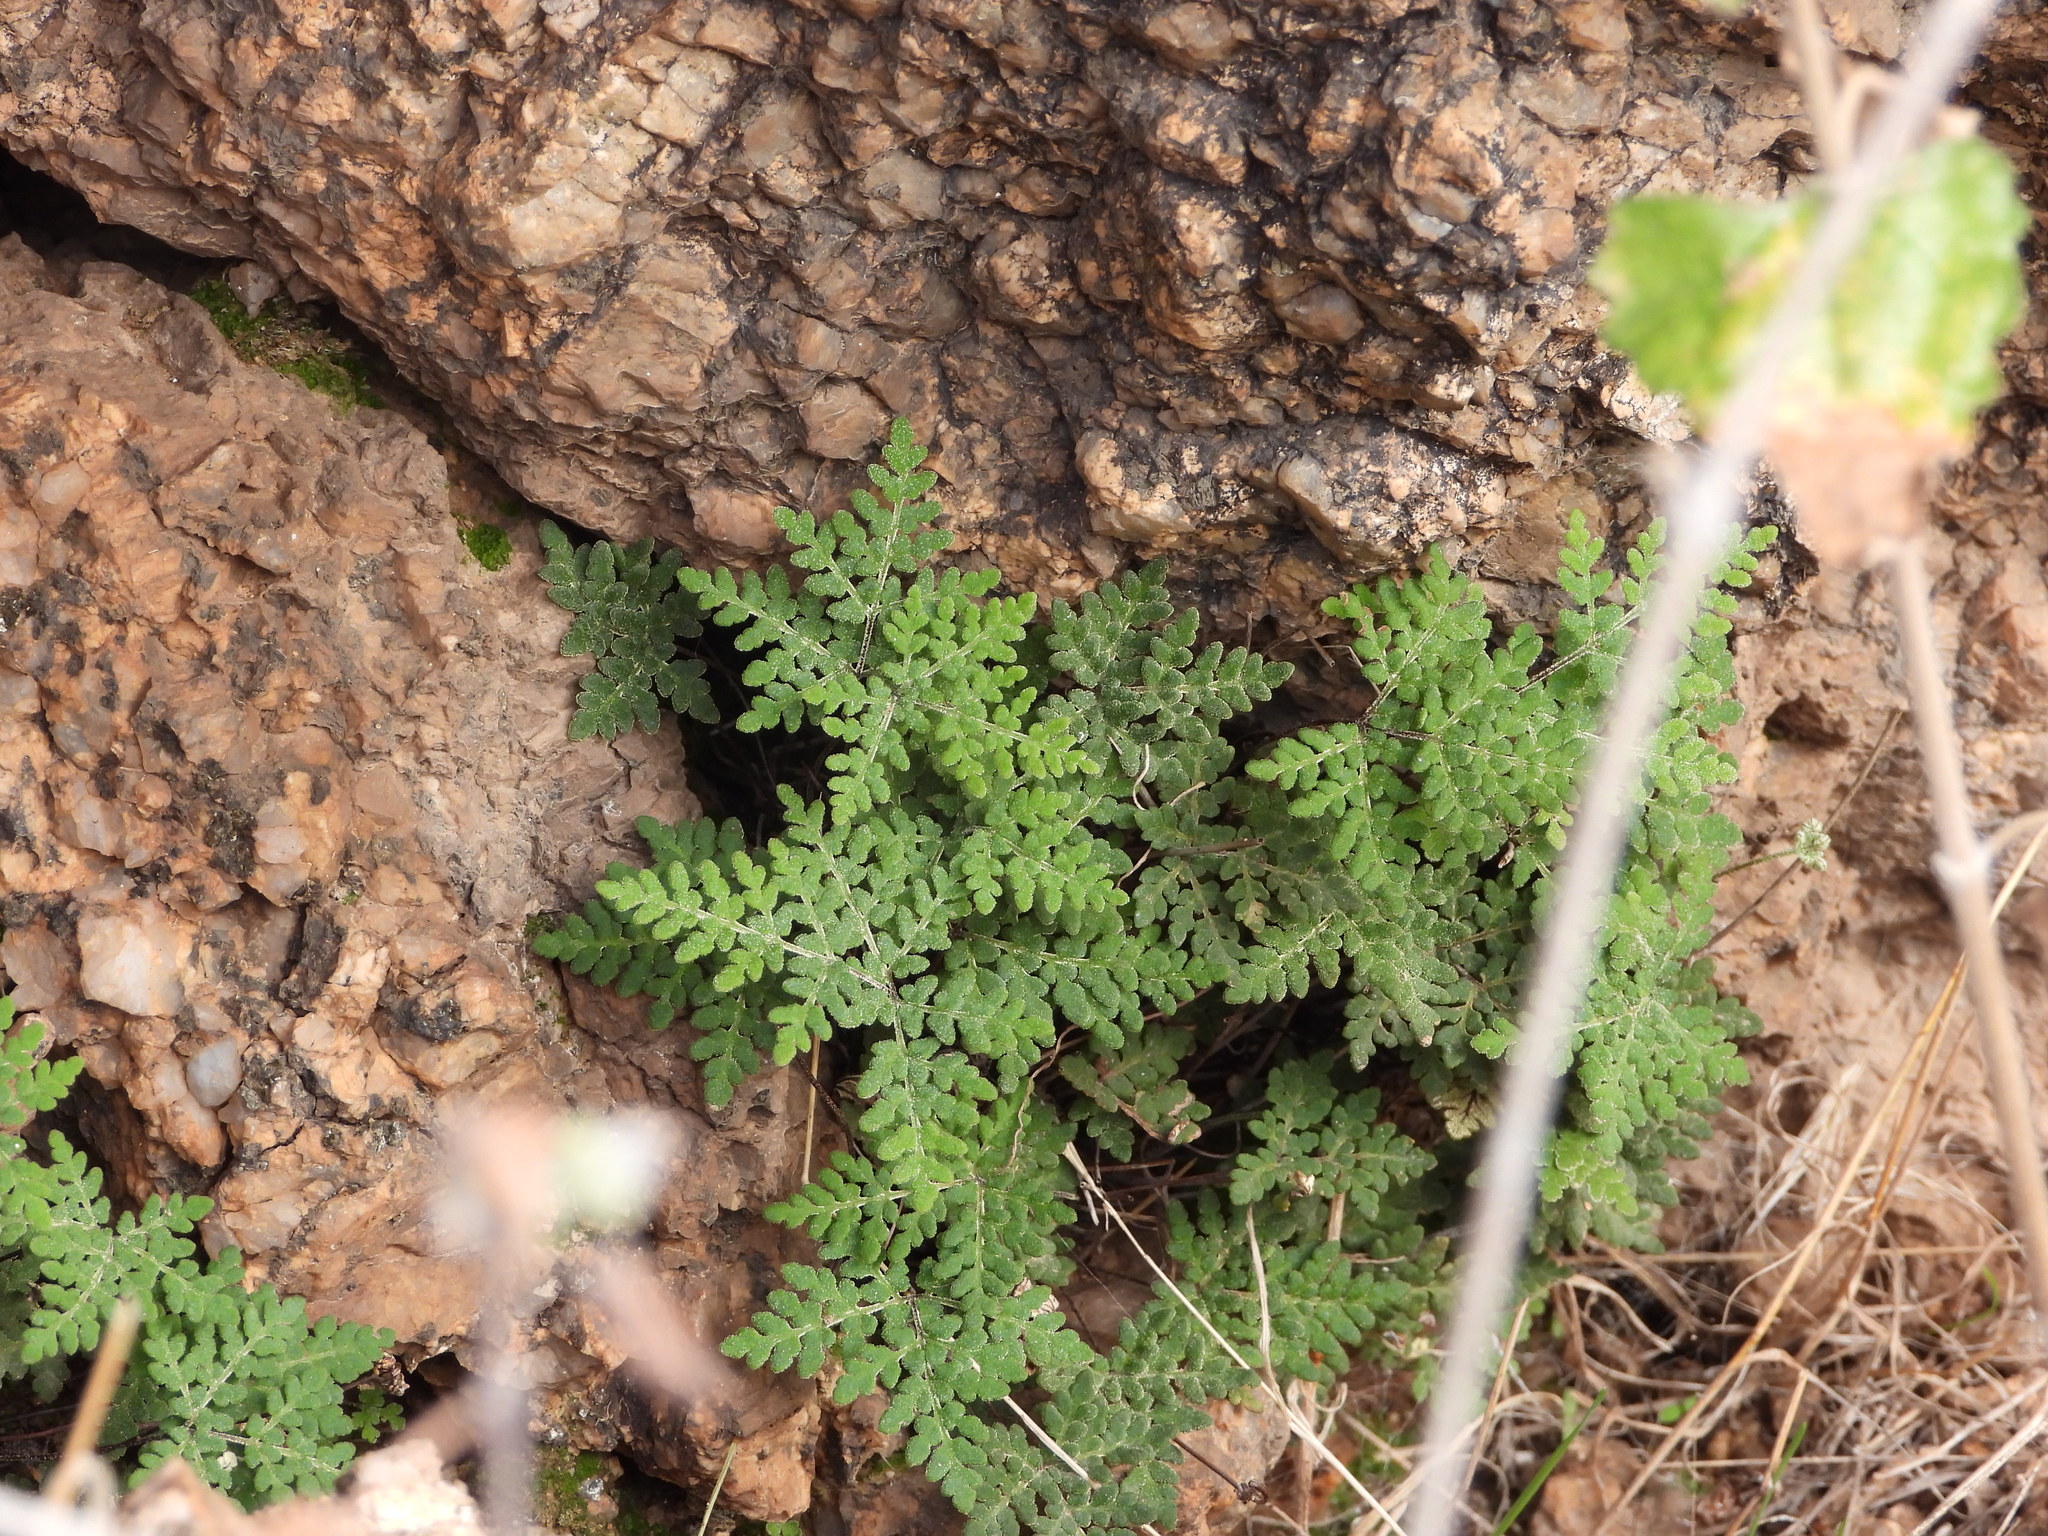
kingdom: Plantae
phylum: Tracheophyta
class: Polypodiopsida
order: Polypodiales
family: Pteridaceae
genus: Notholaena
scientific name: Notholaena californica
